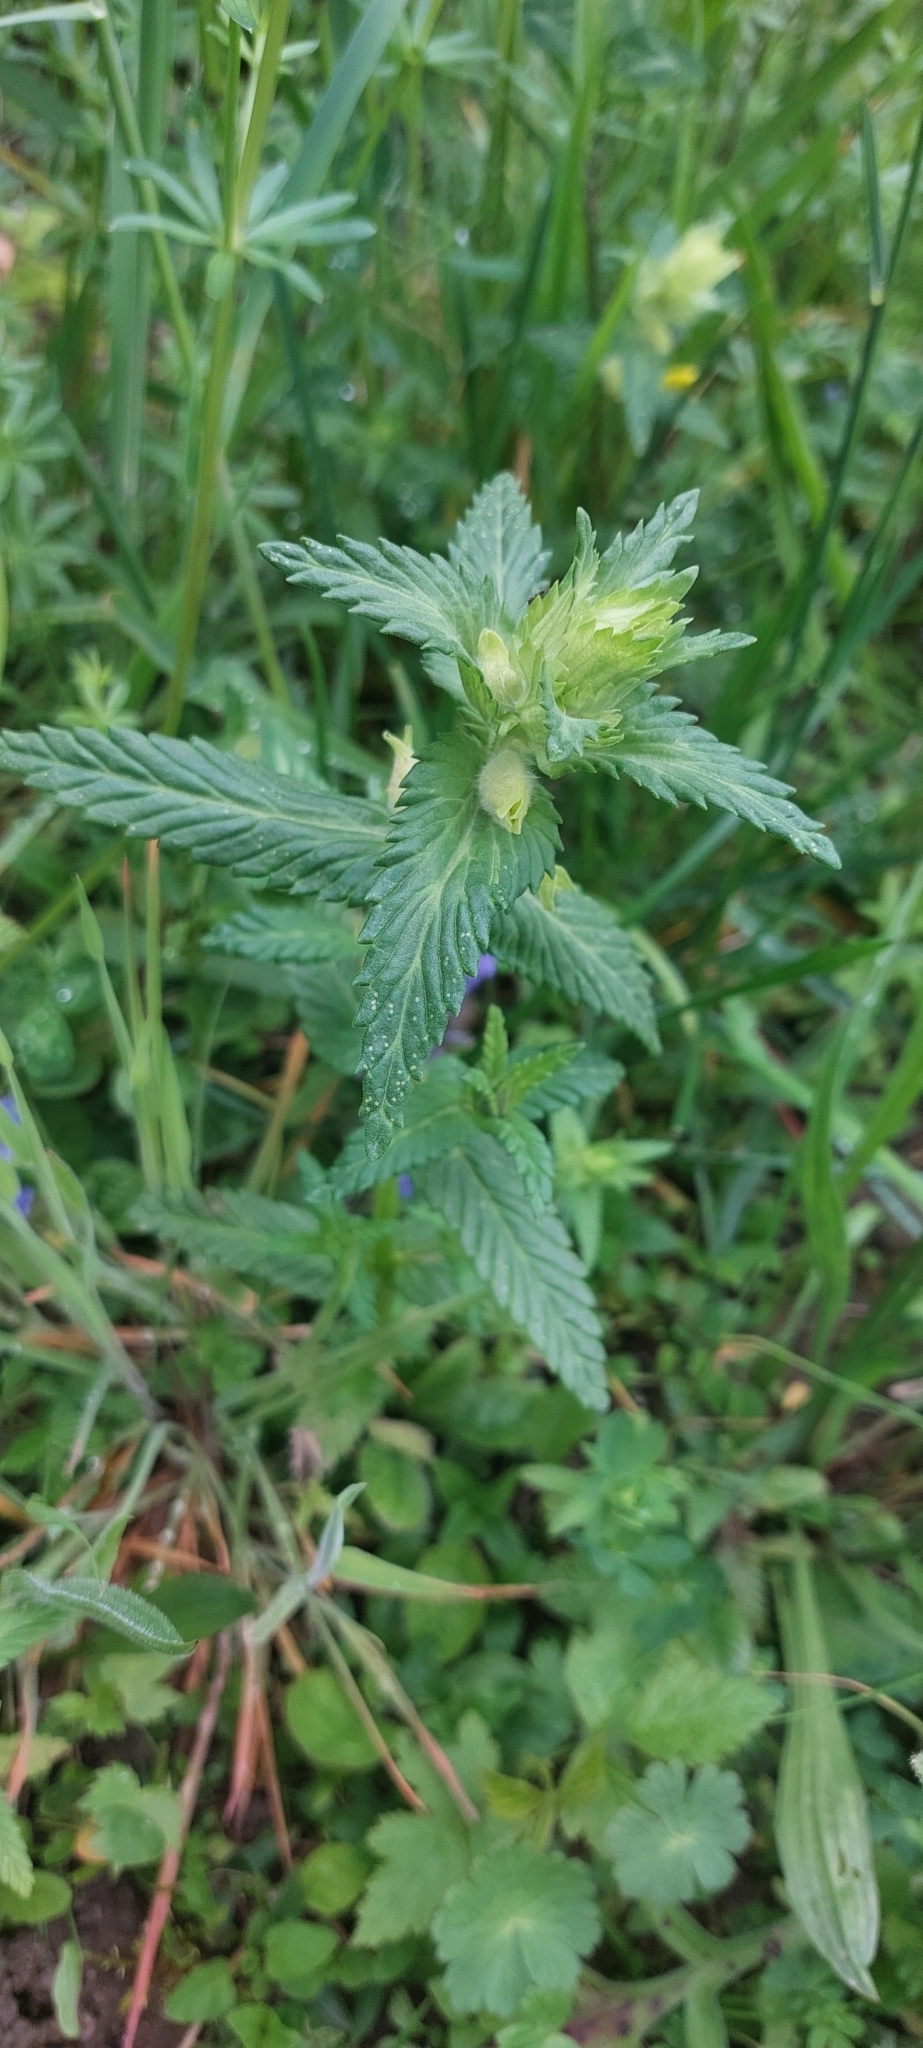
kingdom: Plantae
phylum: Tracheophyta
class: Magnoliopsida
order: Lamiales
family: Orobanchaceae
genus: Rhinanthus
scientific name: Rhinanthus alectorolophus
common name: Greater yellow-rattle
